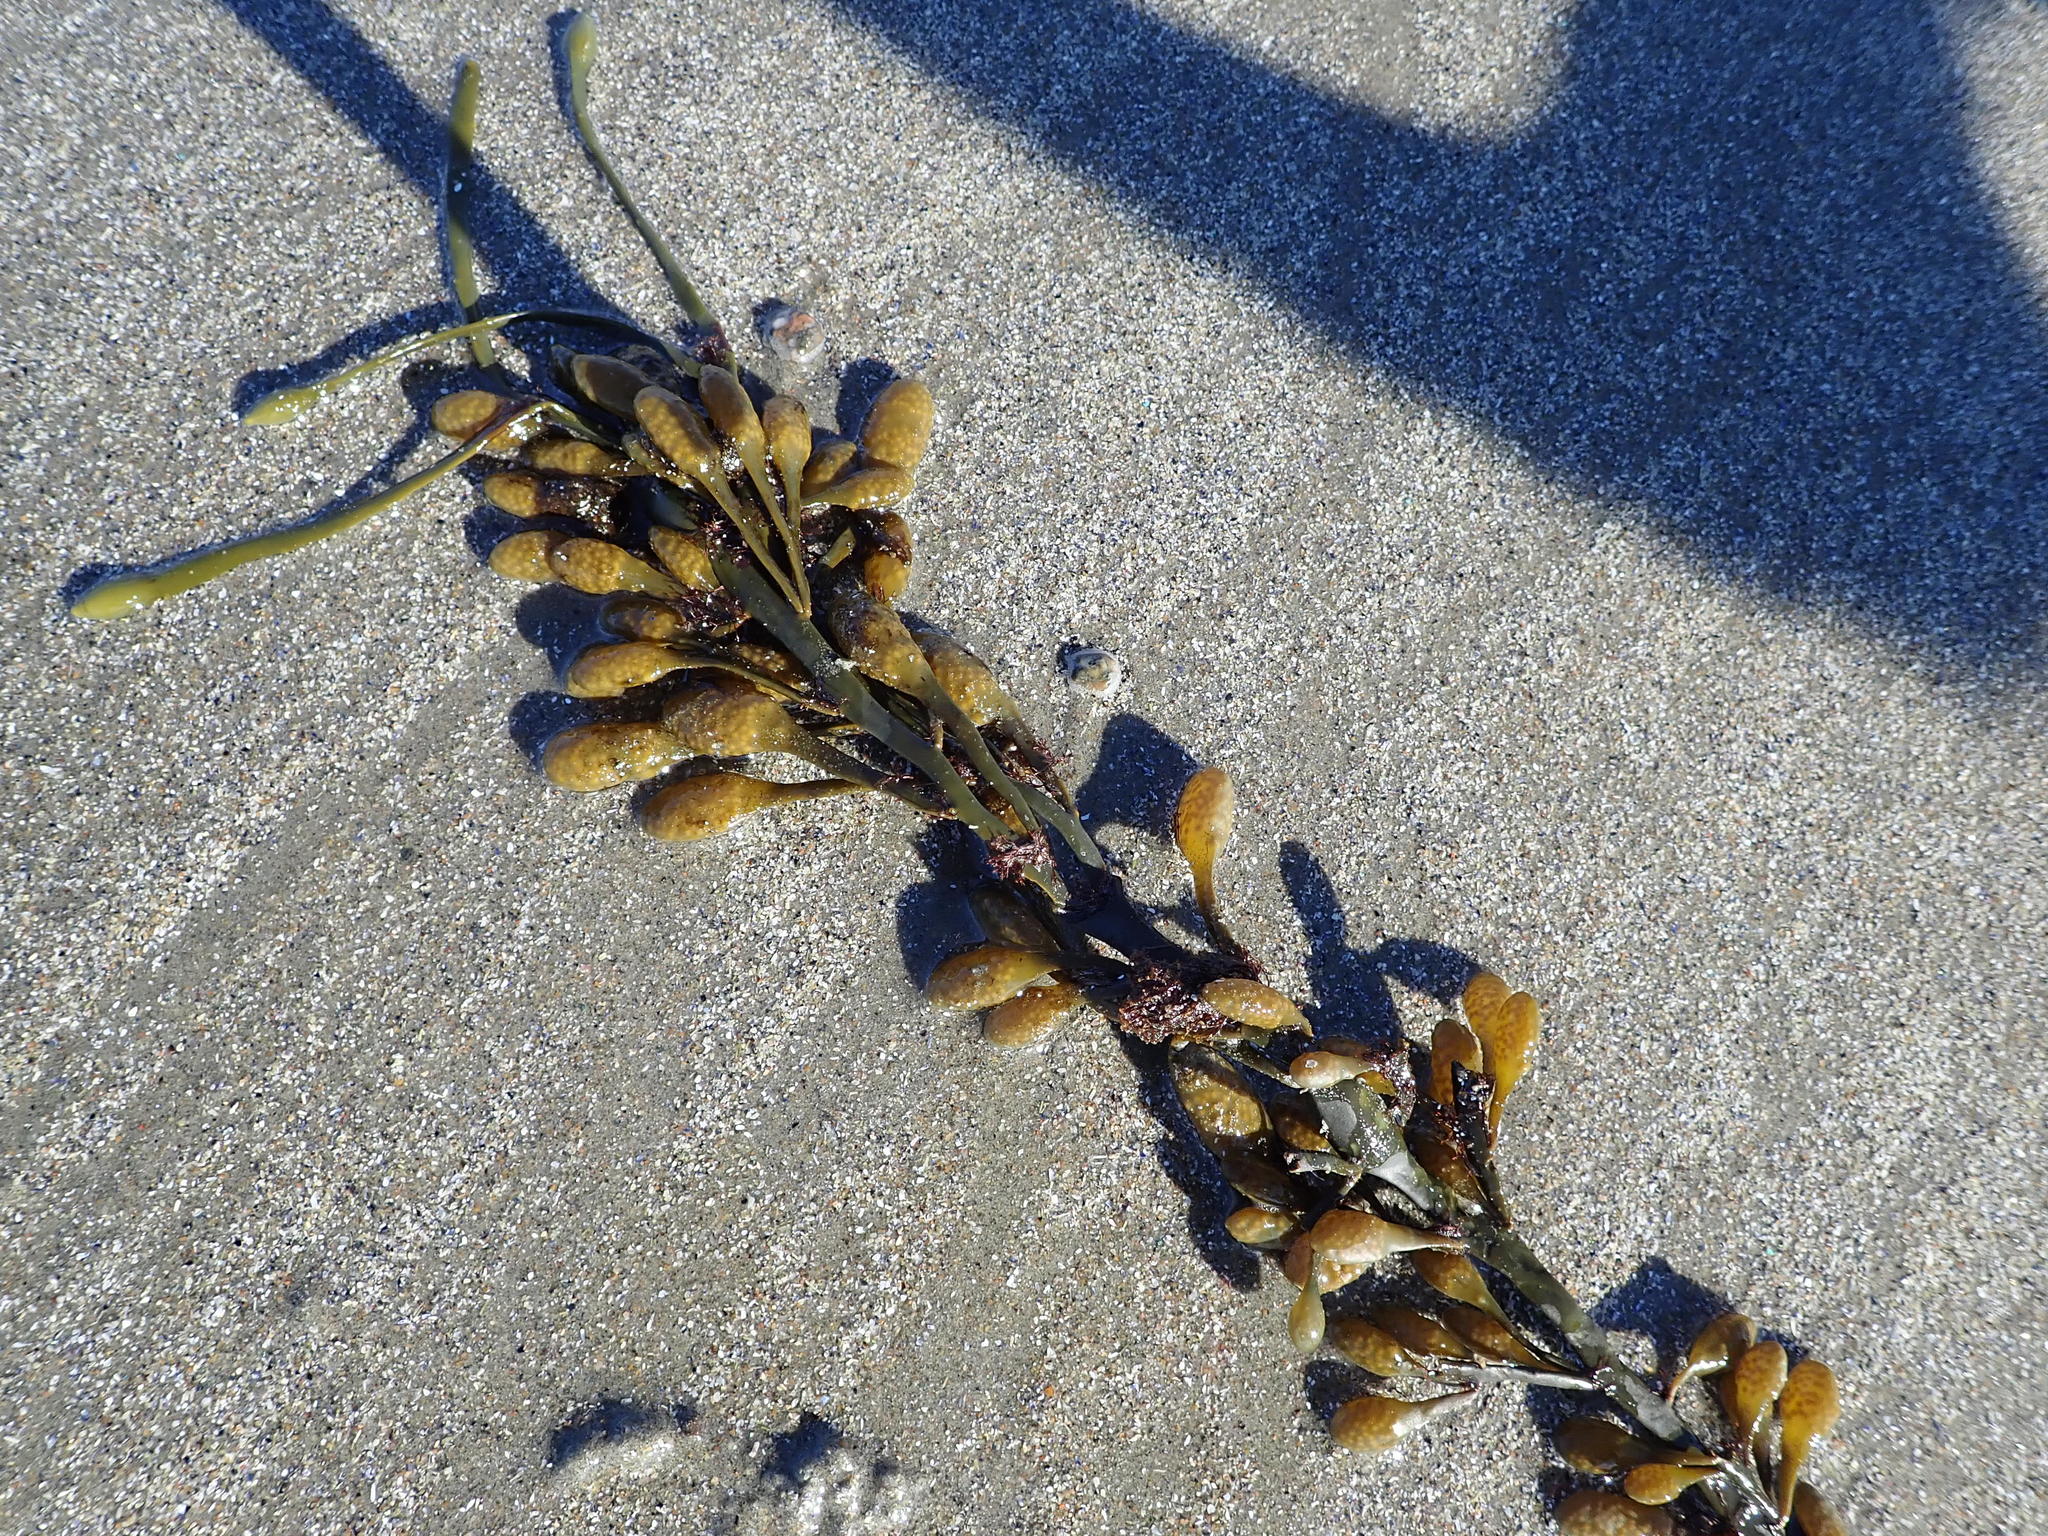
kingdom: Chromista
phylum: Ochrophyta
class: Phaeophyceae
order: Fucales
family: Fucaceae
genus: Ascophyllum
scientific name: Ascophyllum nodosum
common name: Knotted wrack
